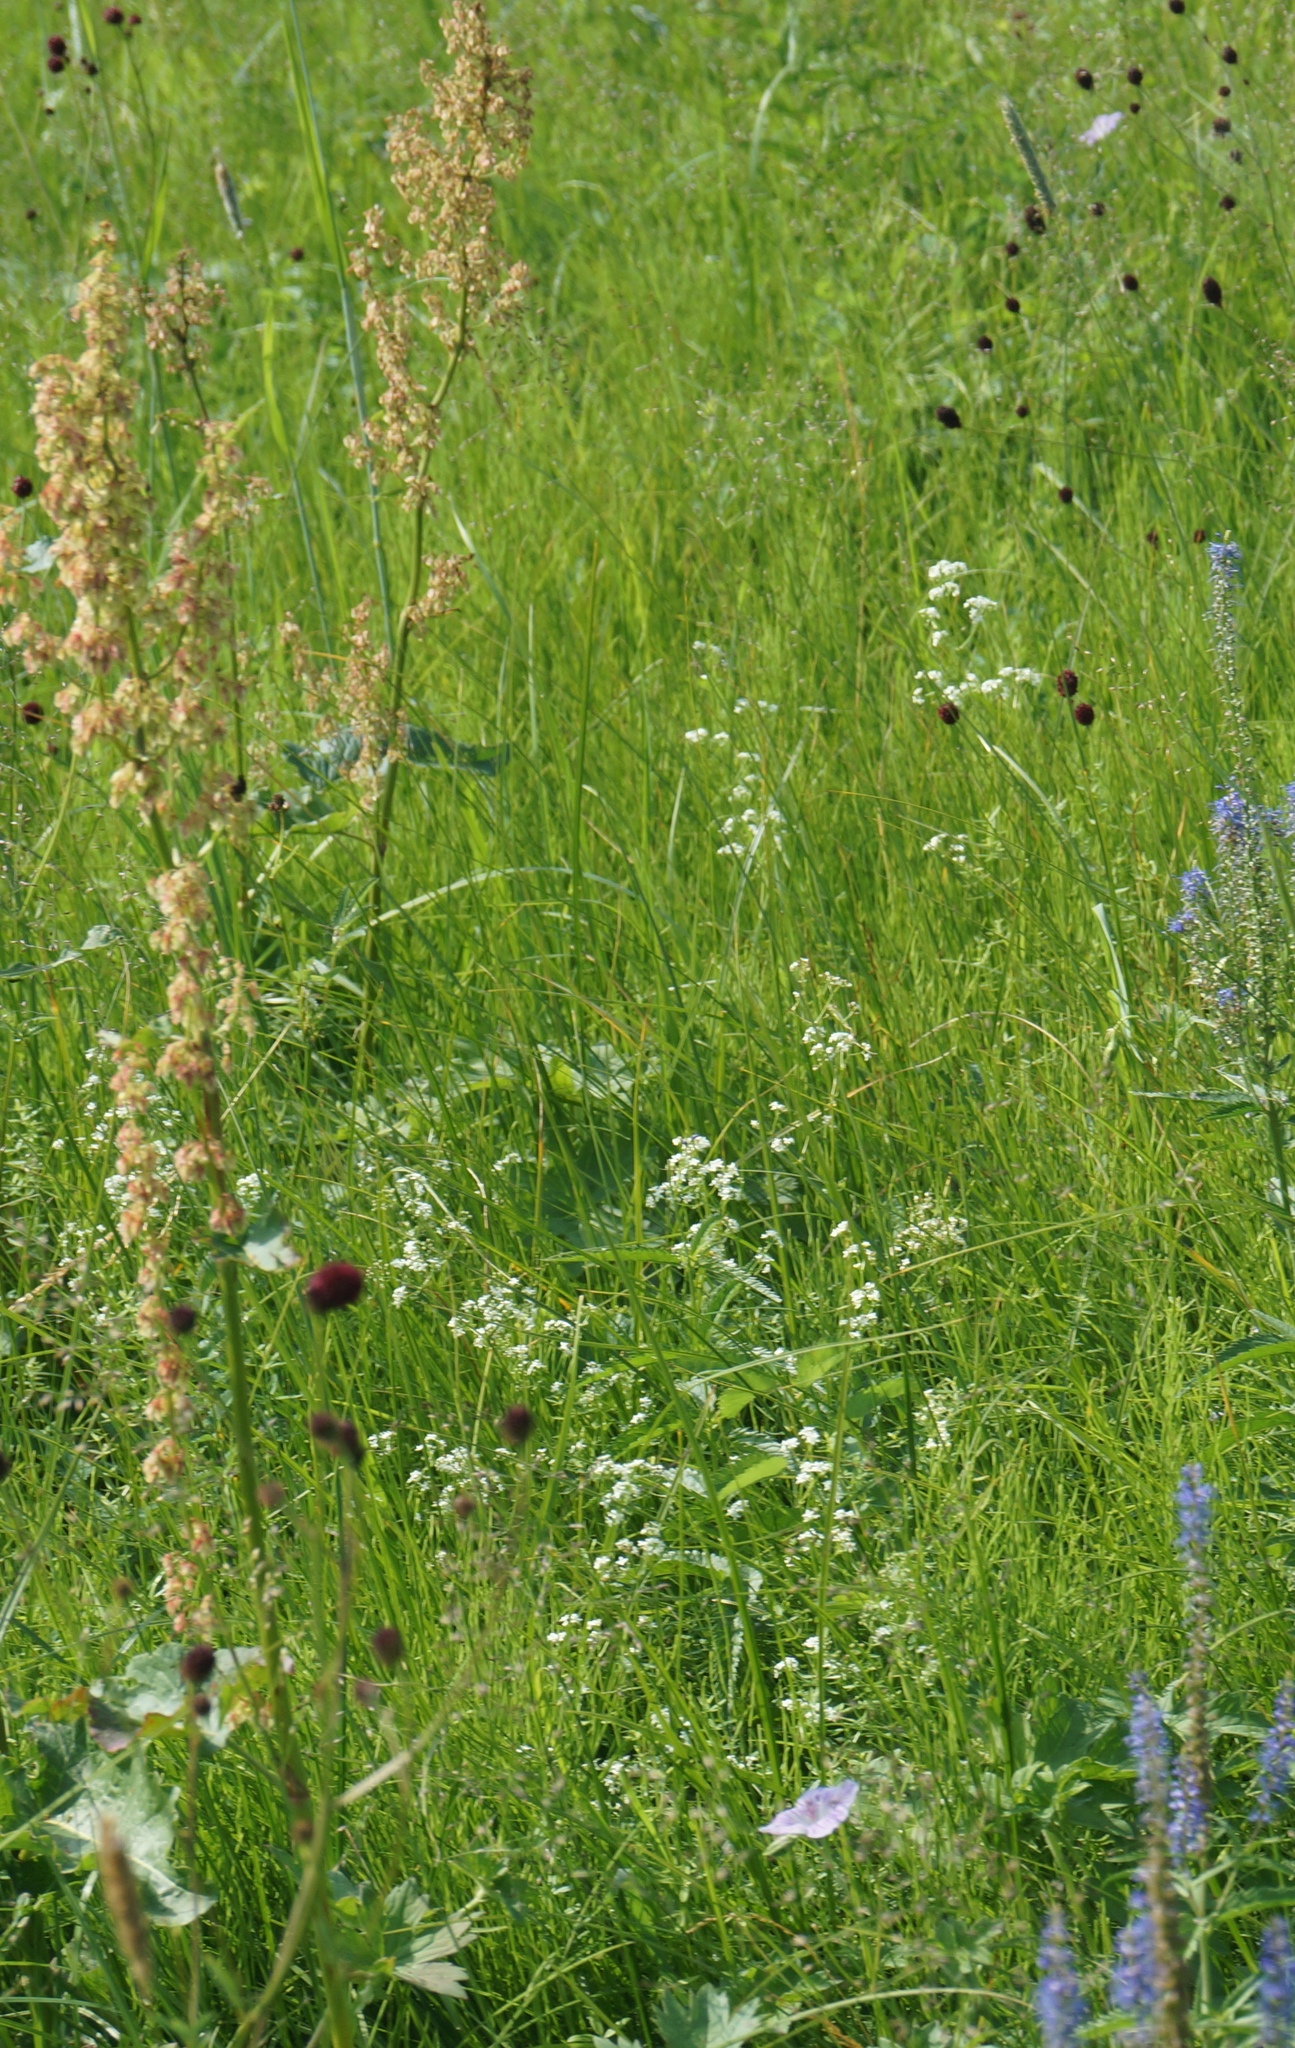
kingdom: Plantae
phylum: Tracheophyta
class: Magnoliopsida
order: Caryophyllales
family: Polygonaceae
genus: Rumex
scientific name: Rumex thyrsiflorus
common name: Garden sorrel
